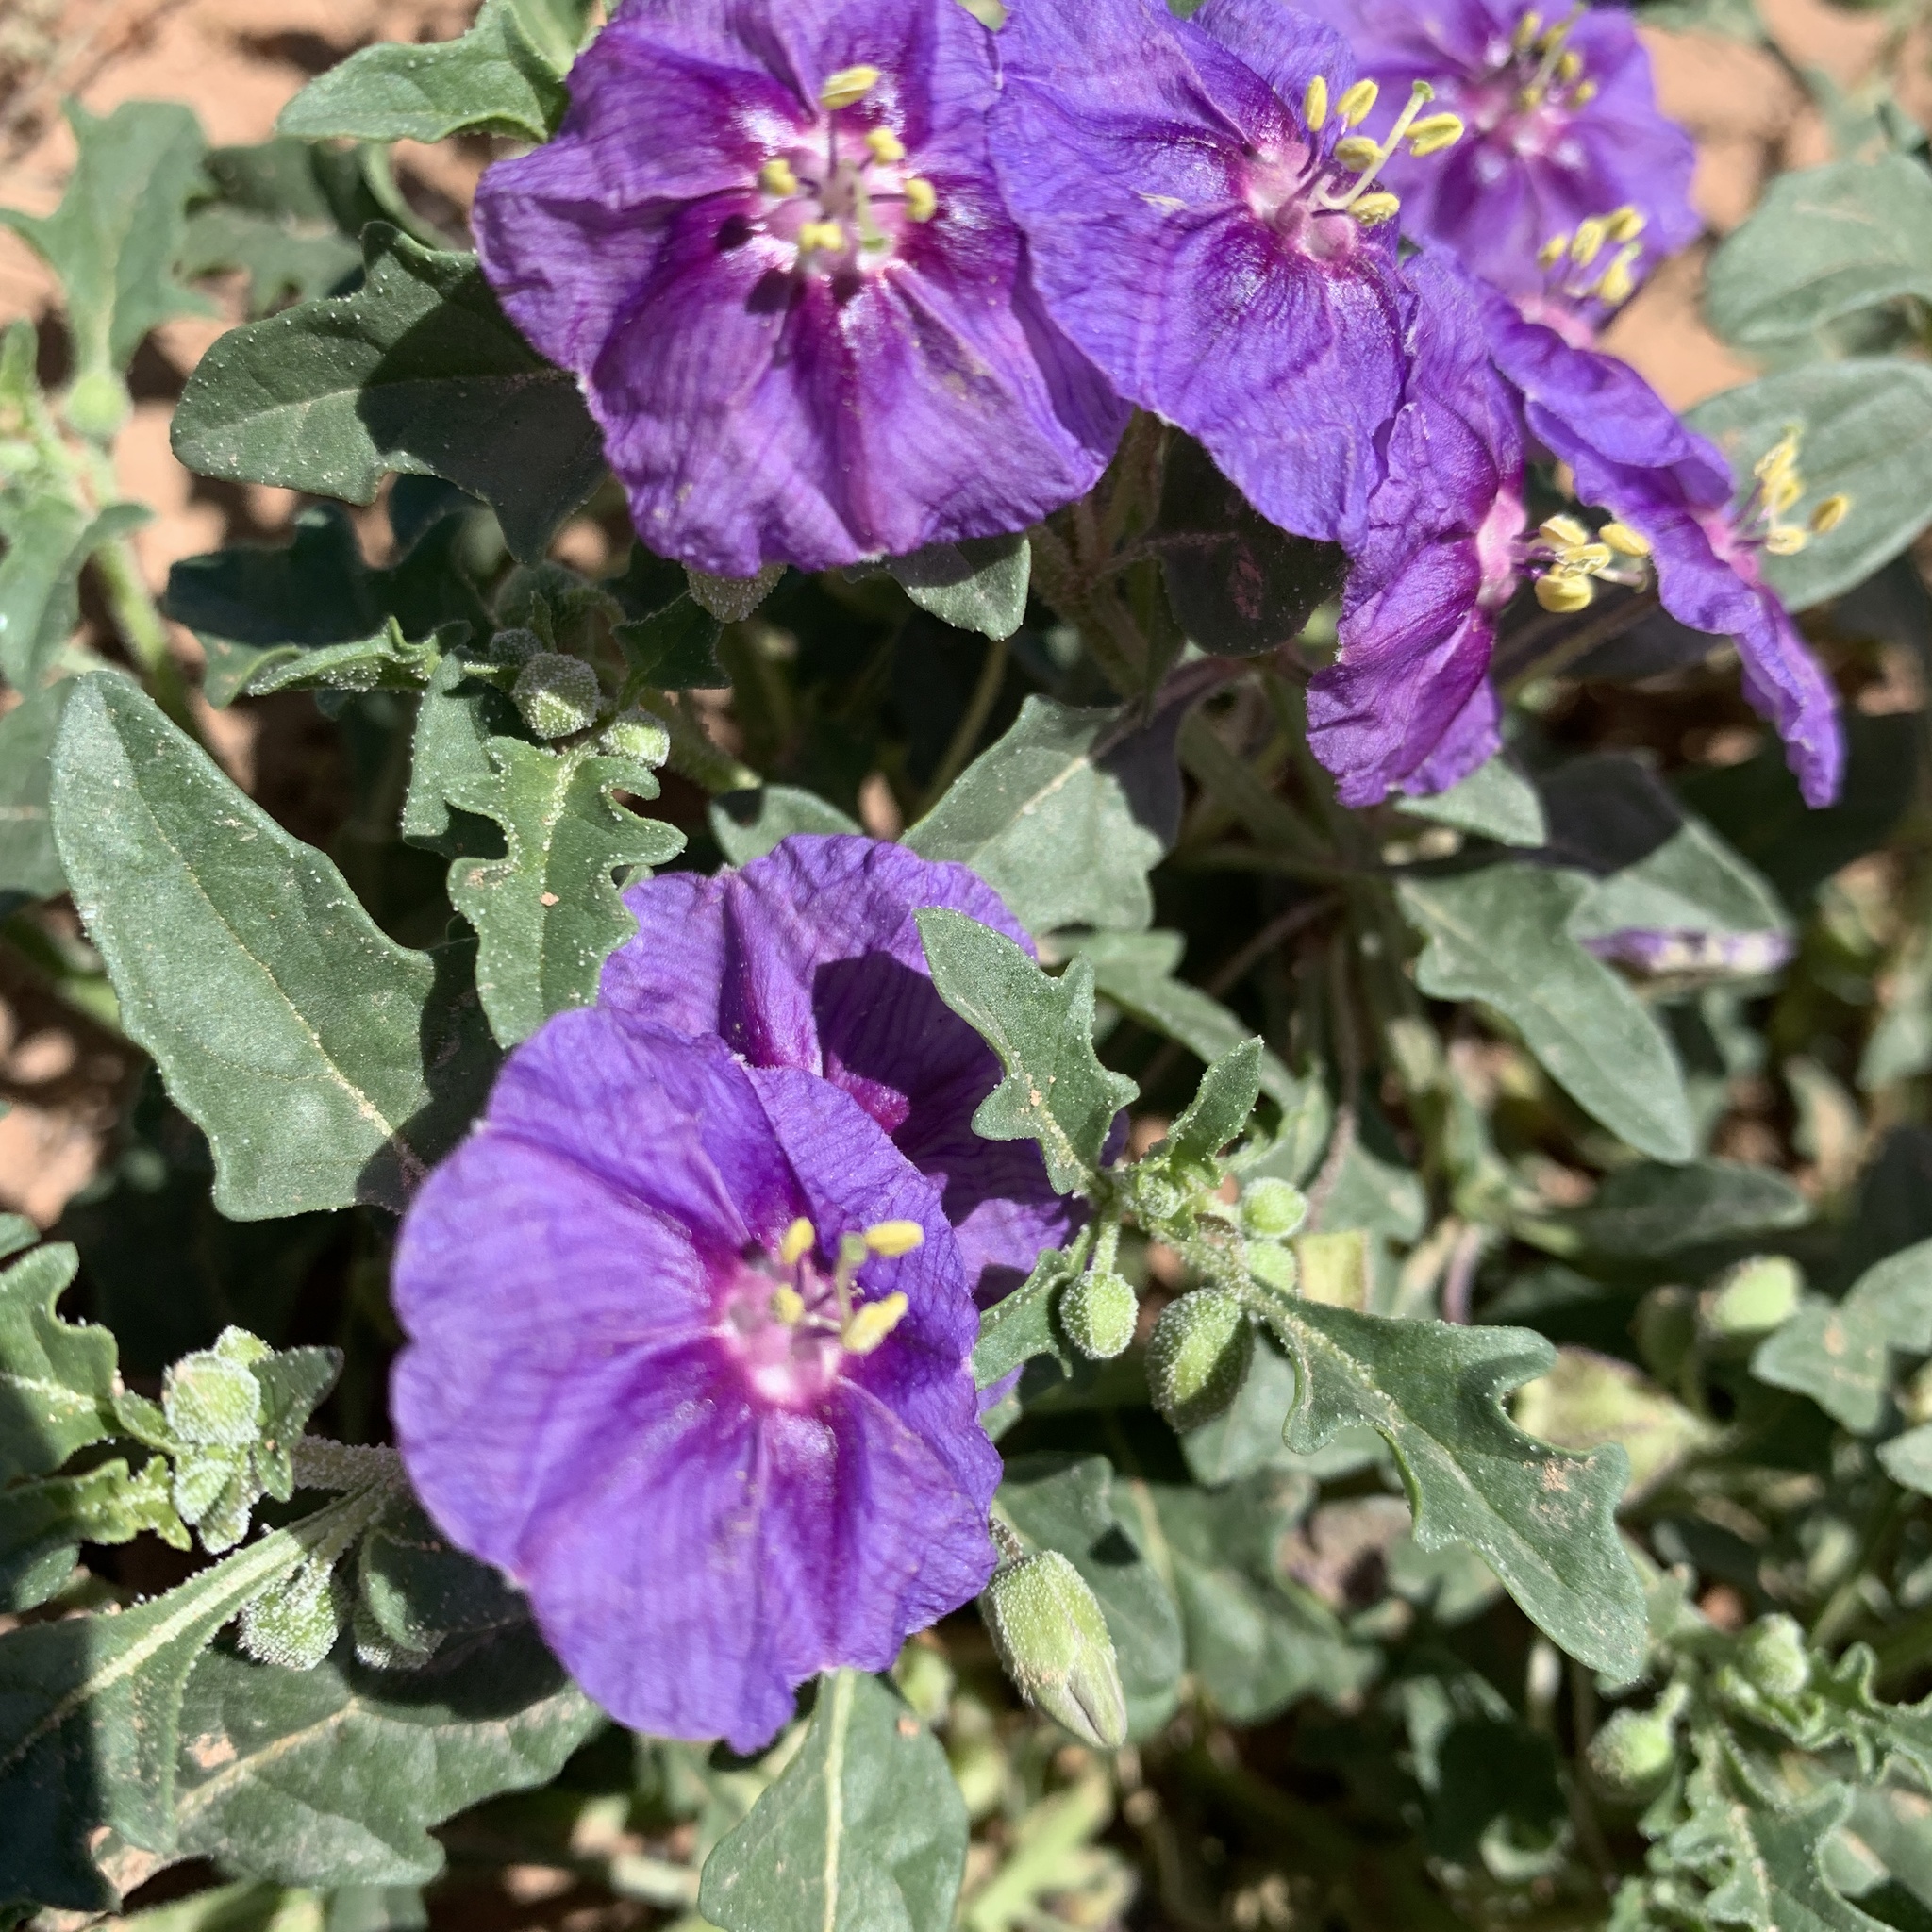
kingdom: Plantae
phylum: Tracheophyta
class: Magnoliopsida
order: Solanales
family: Solanaceae
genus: Quincula
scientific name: Quincula lobata
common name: Purple-ground-cherry
